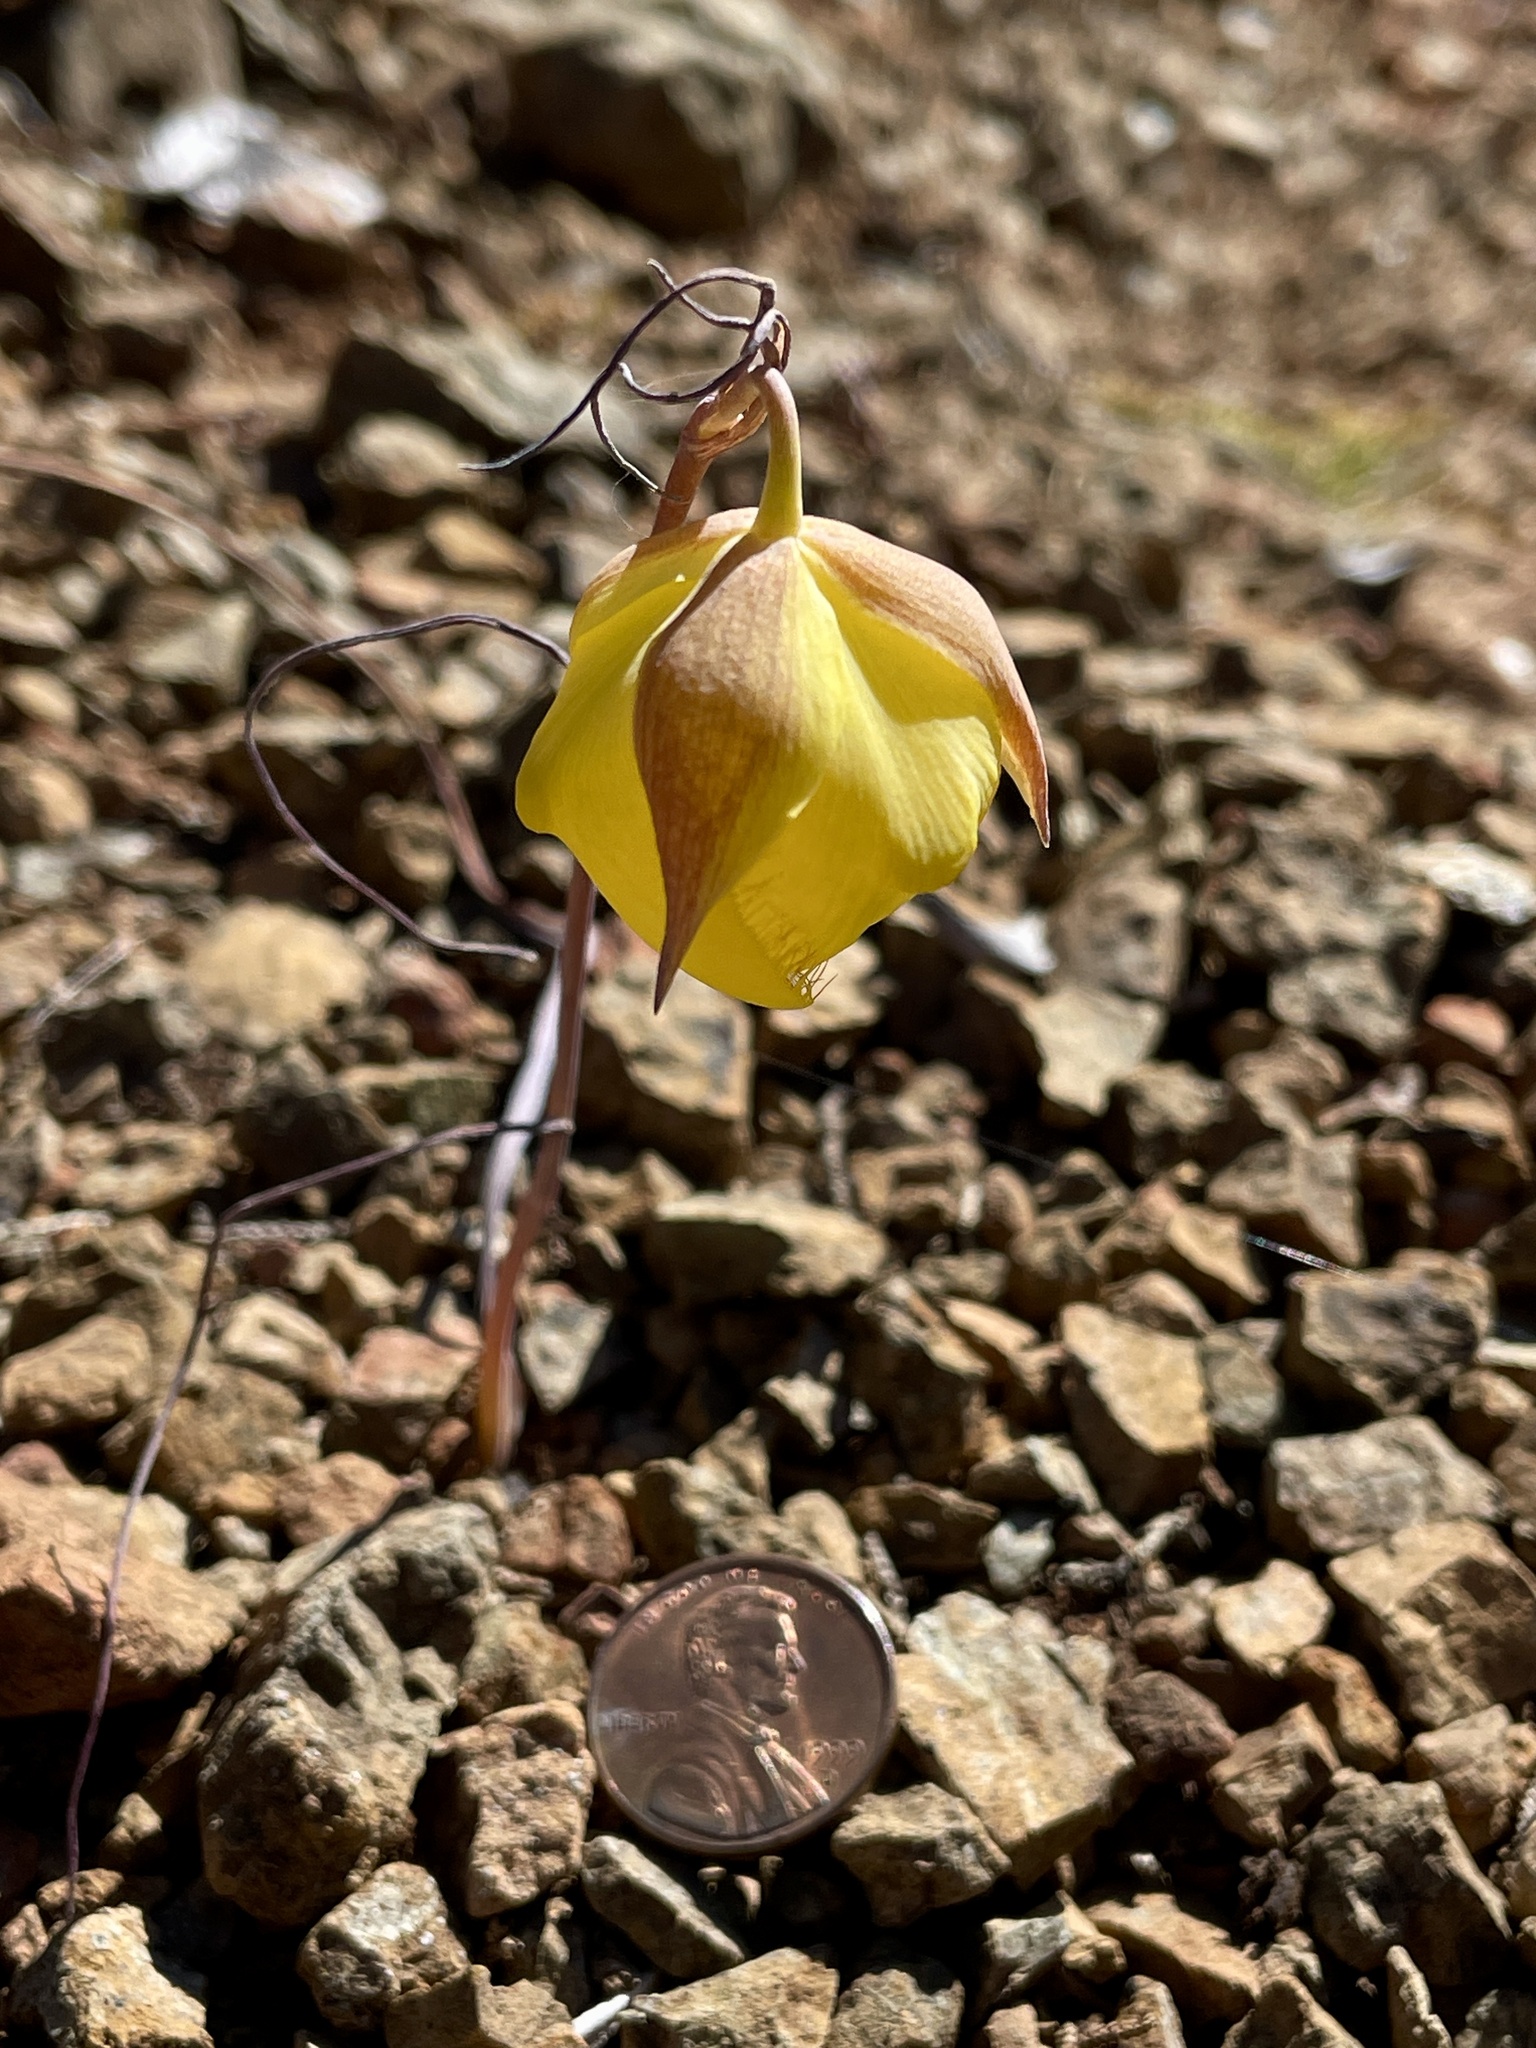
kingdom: Plantae
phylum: Tracheophyta
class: Liliopsida
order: Liliales
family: Liliaceae
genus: Calochortus
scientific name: Calochortus raichei
